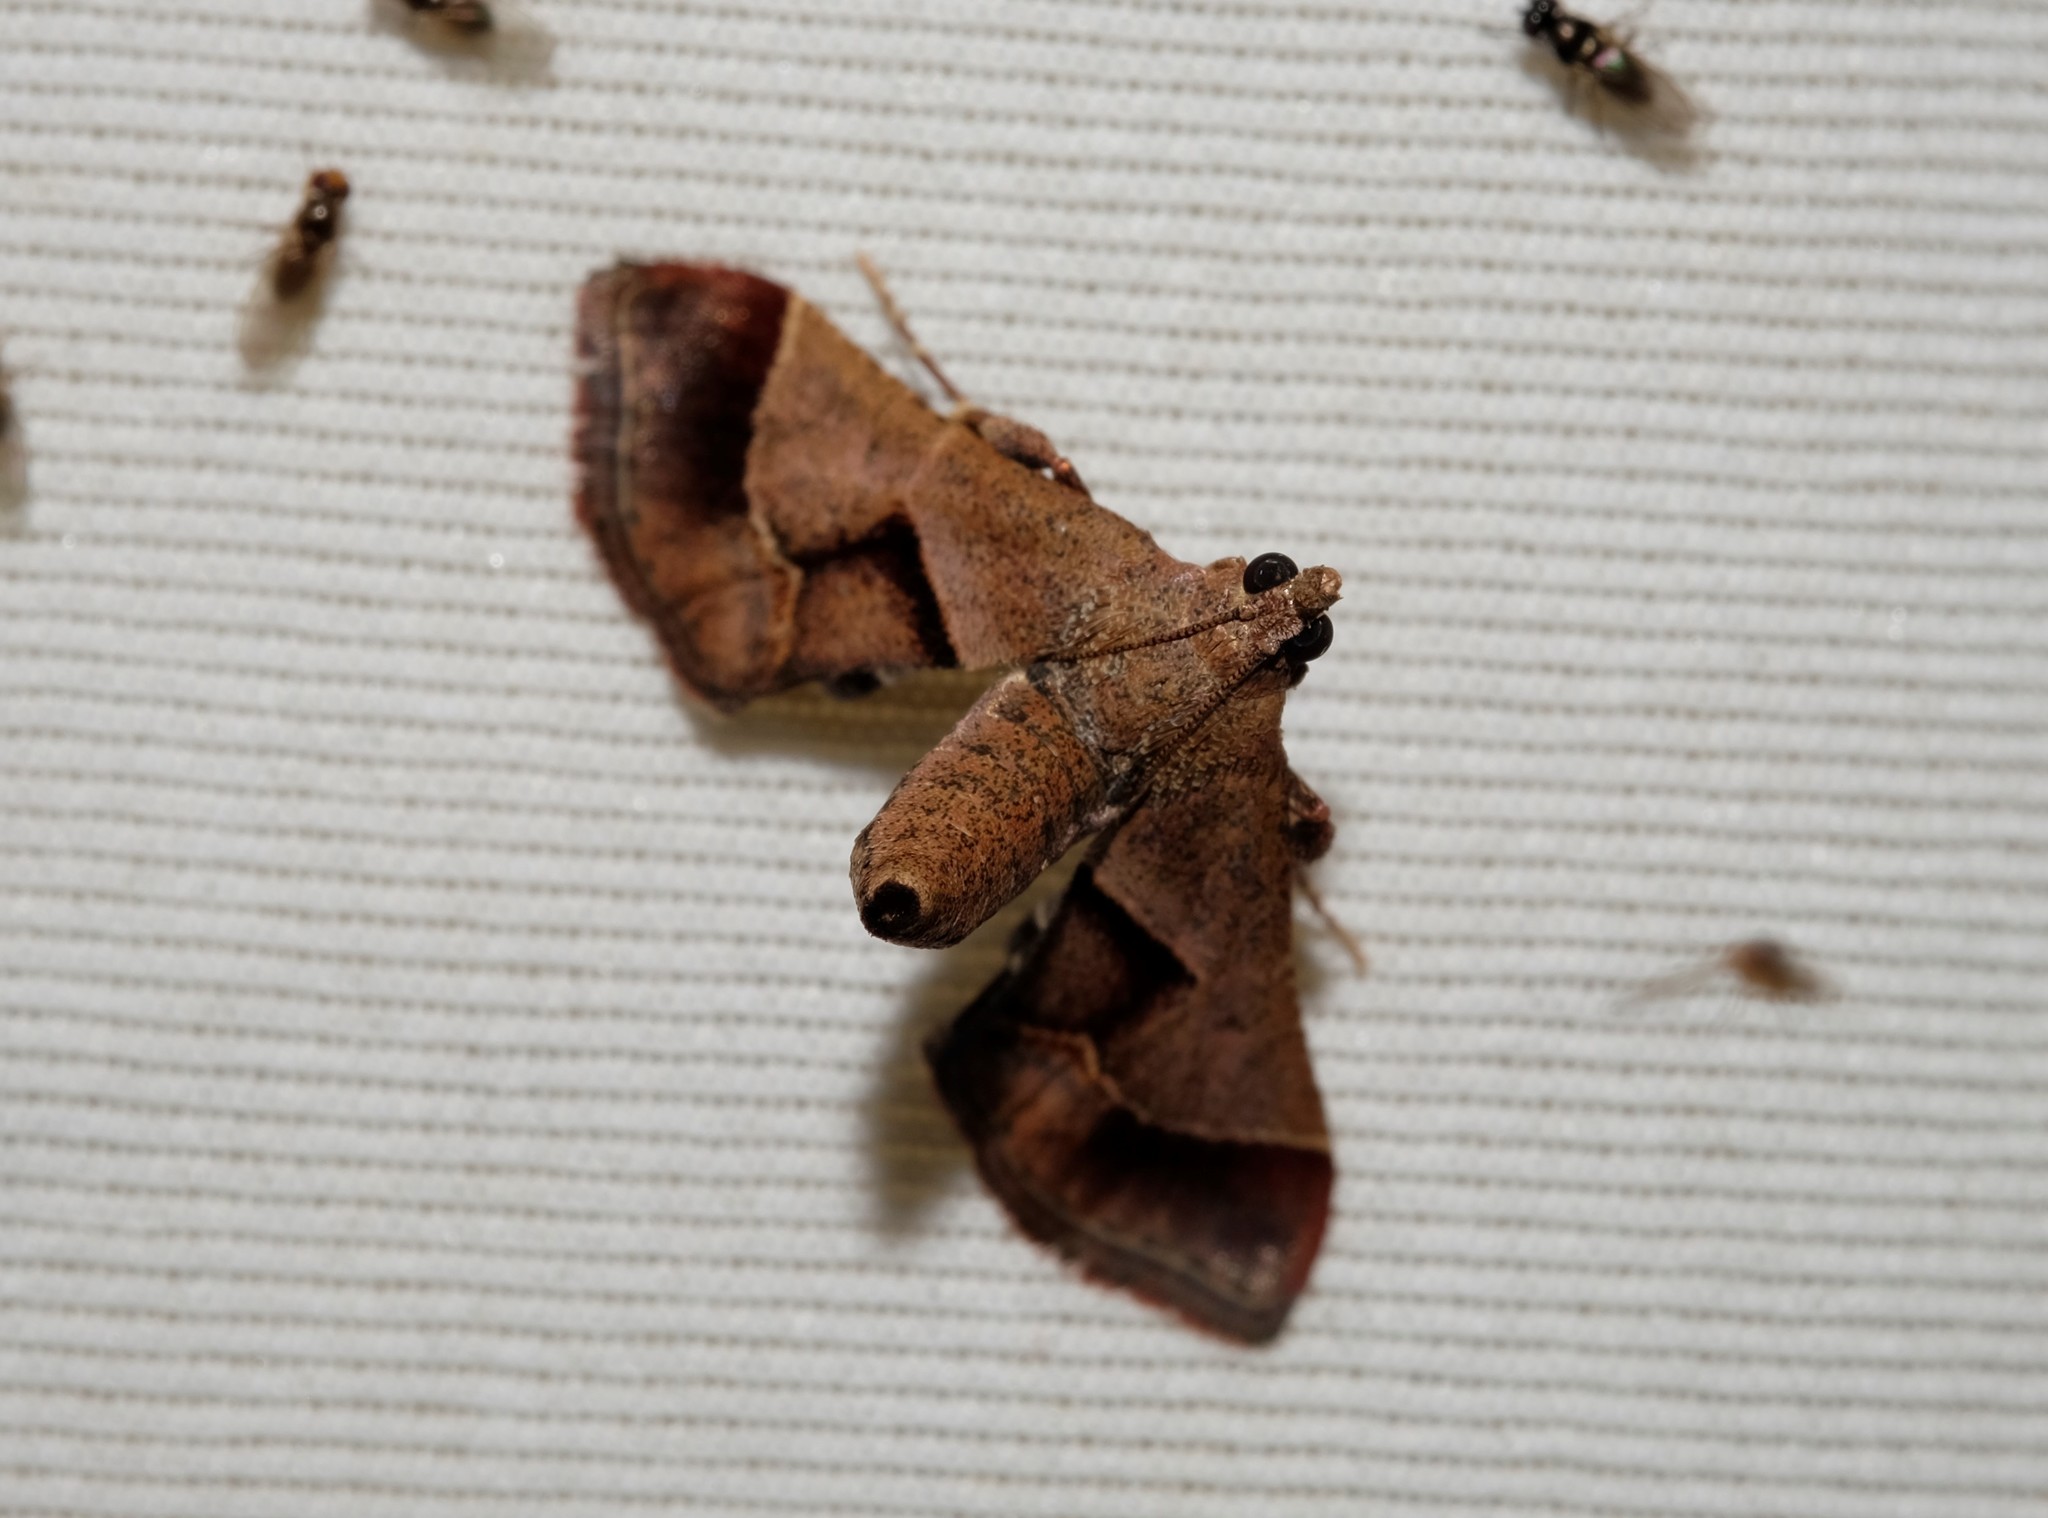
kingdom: Animalia
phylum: Arthropoda
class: Insecta
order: Lepidoptera
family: Pyralidae
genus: Gauna
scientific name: Gauna aegusalis
